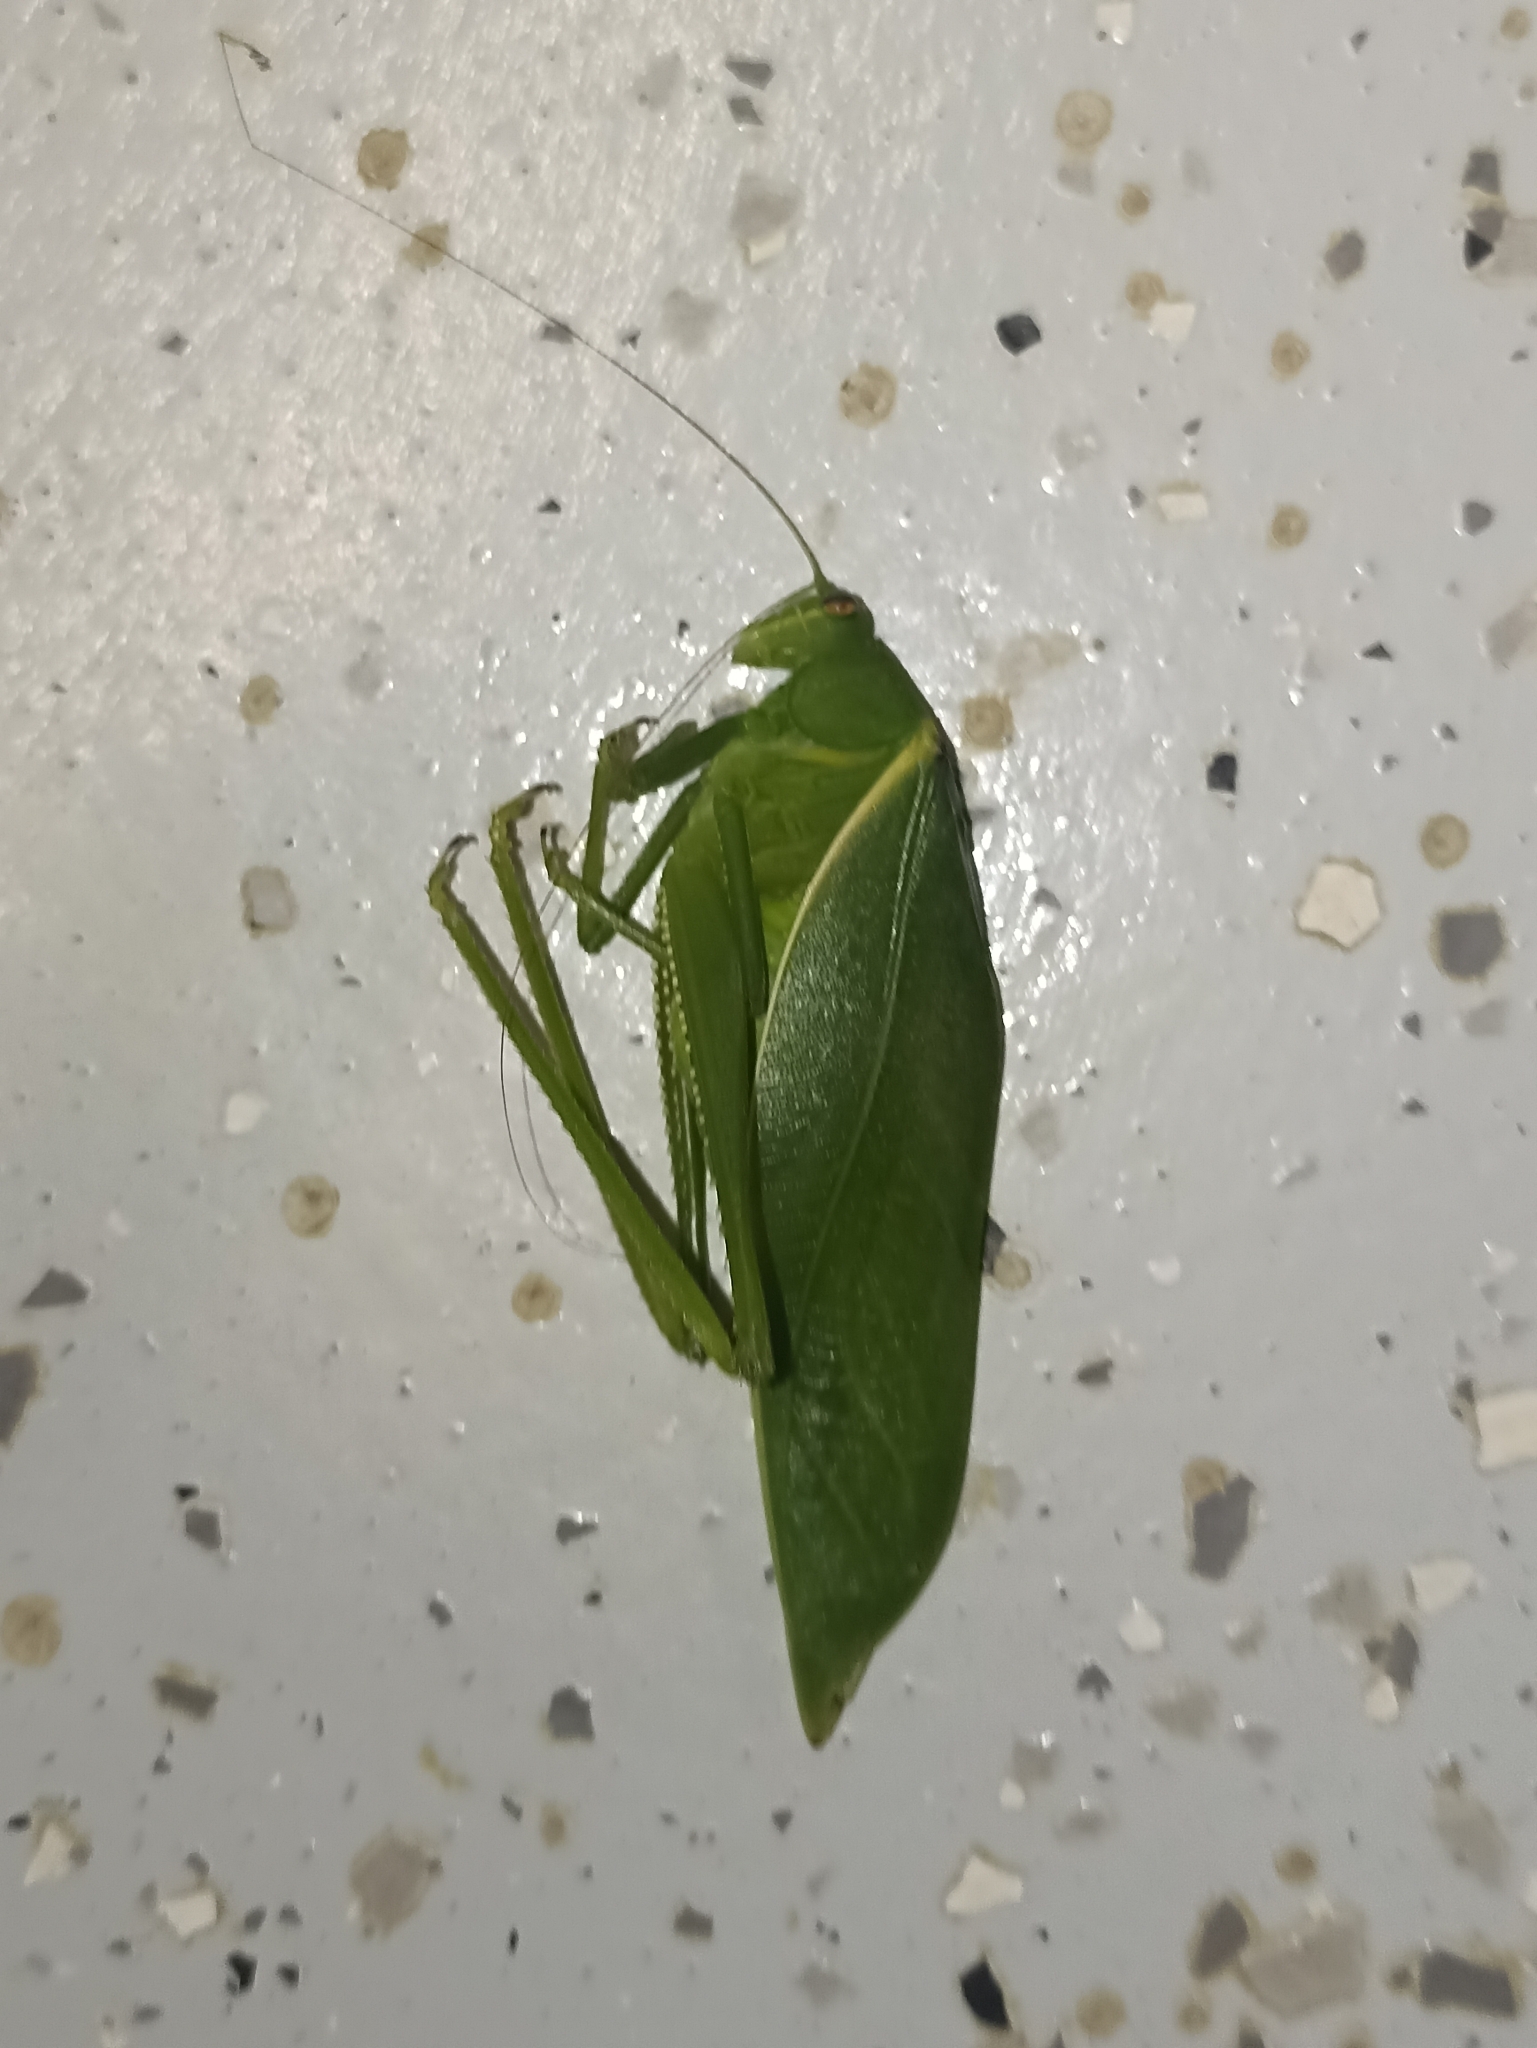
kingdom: Animalia
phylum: Arthropoda
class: Insecta
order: Orthoptera
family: Tettigoniidae
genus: Paracaedicia
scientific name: Paracaedicia serrata
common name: Serrated bush katydid
